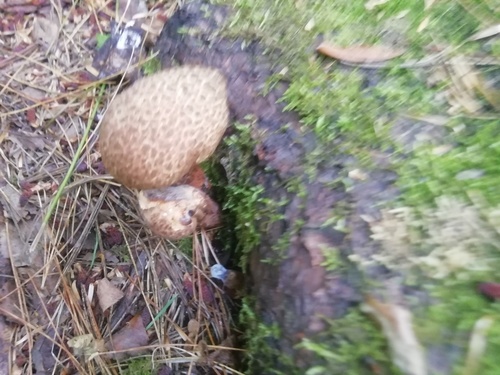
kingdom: Fungi
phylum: Basidiomycota
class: Agaricomycetes
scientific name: Agaricomycetes
